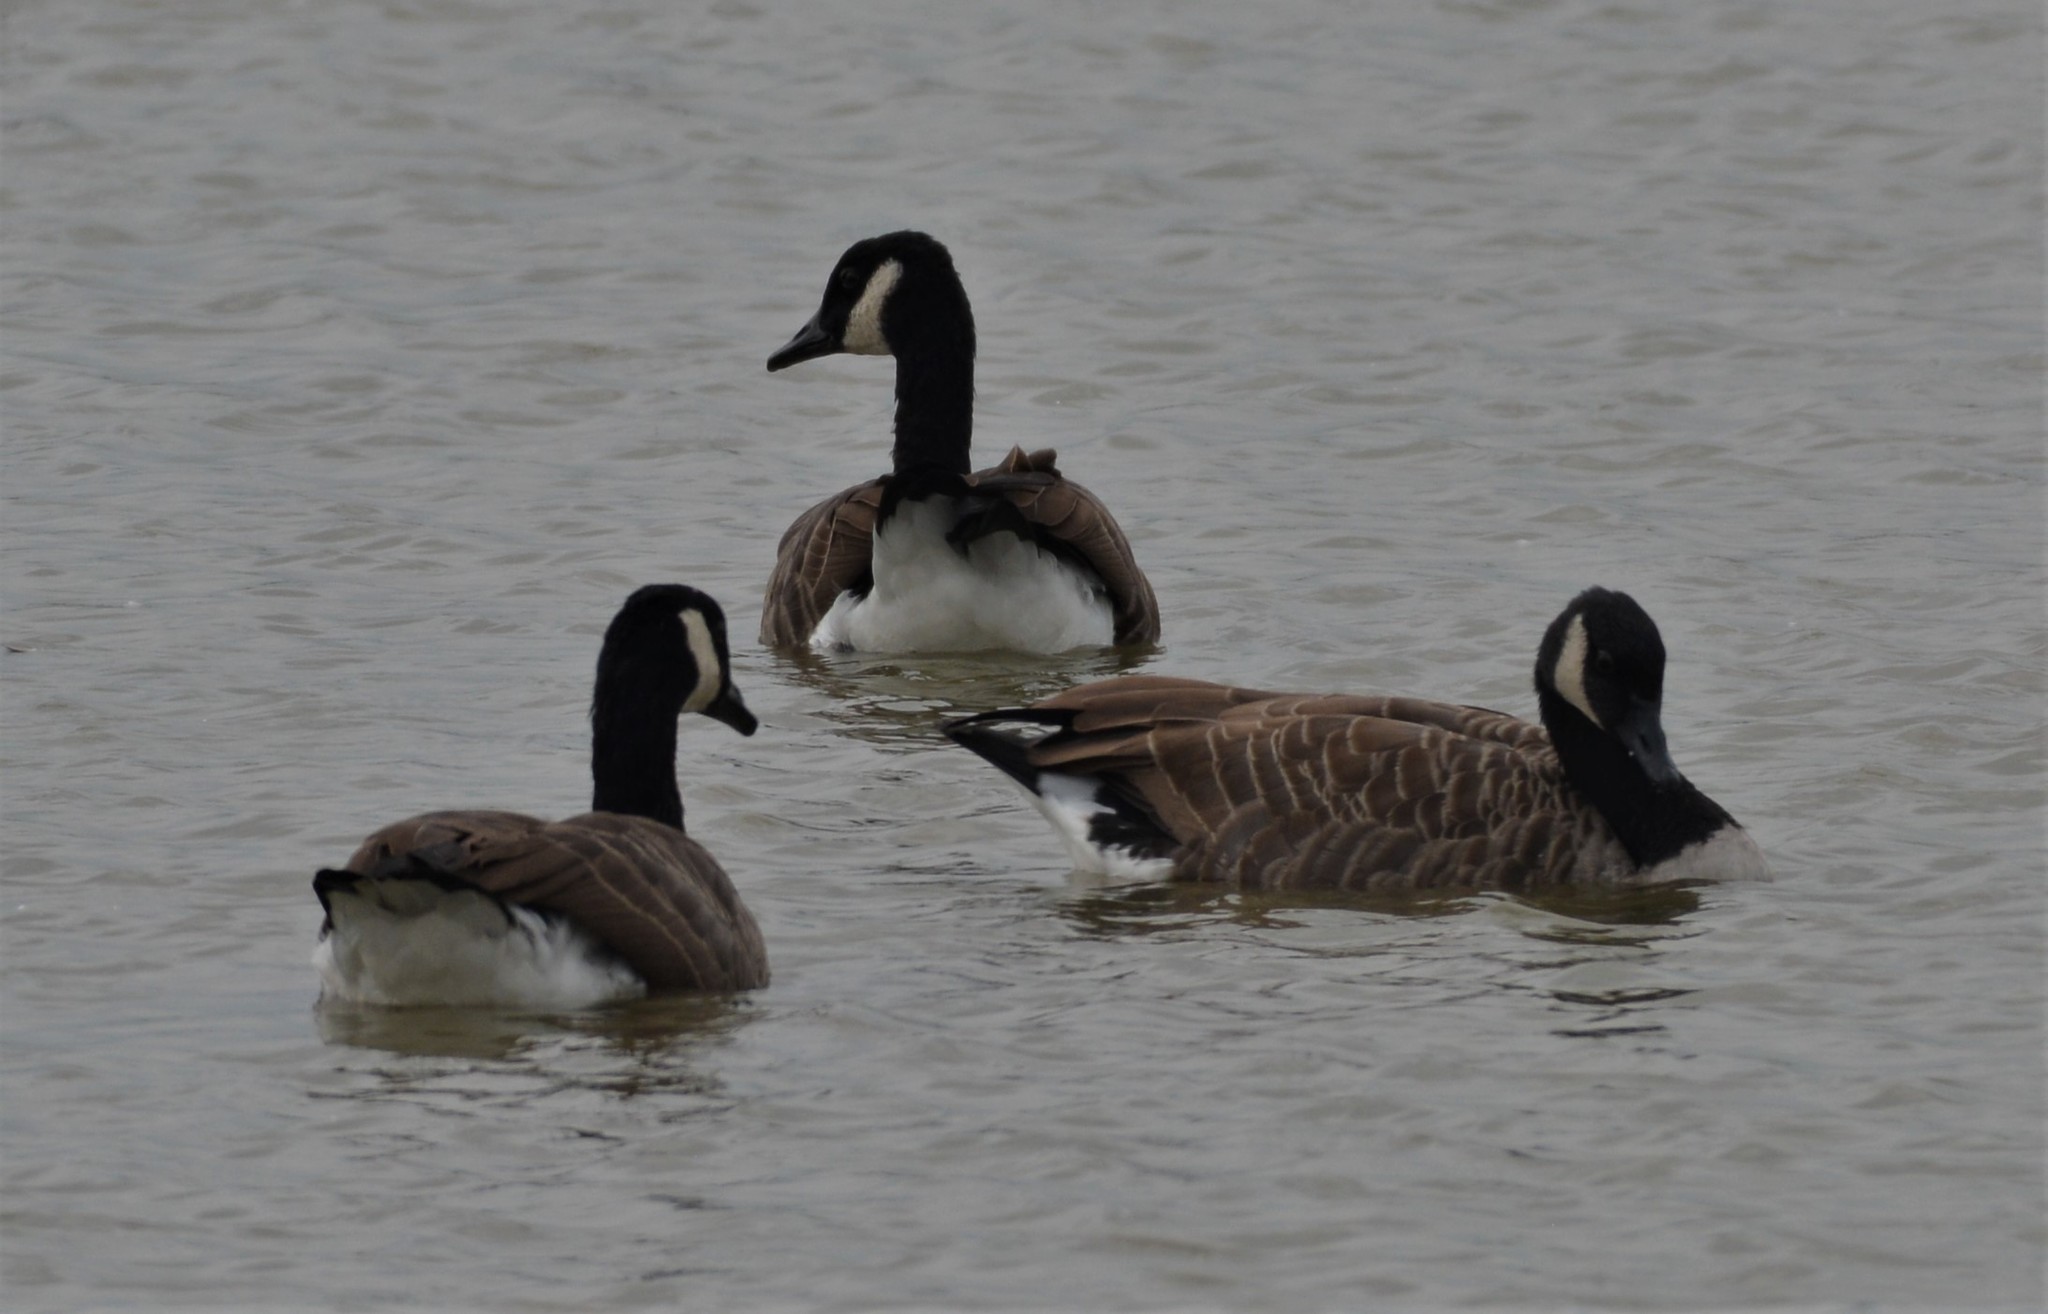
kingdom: Animalia
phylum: Chordata
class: Aves
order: Anseriformes
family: Anatidae
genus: Branta
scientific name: Branta canadensis
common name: Canada goose
